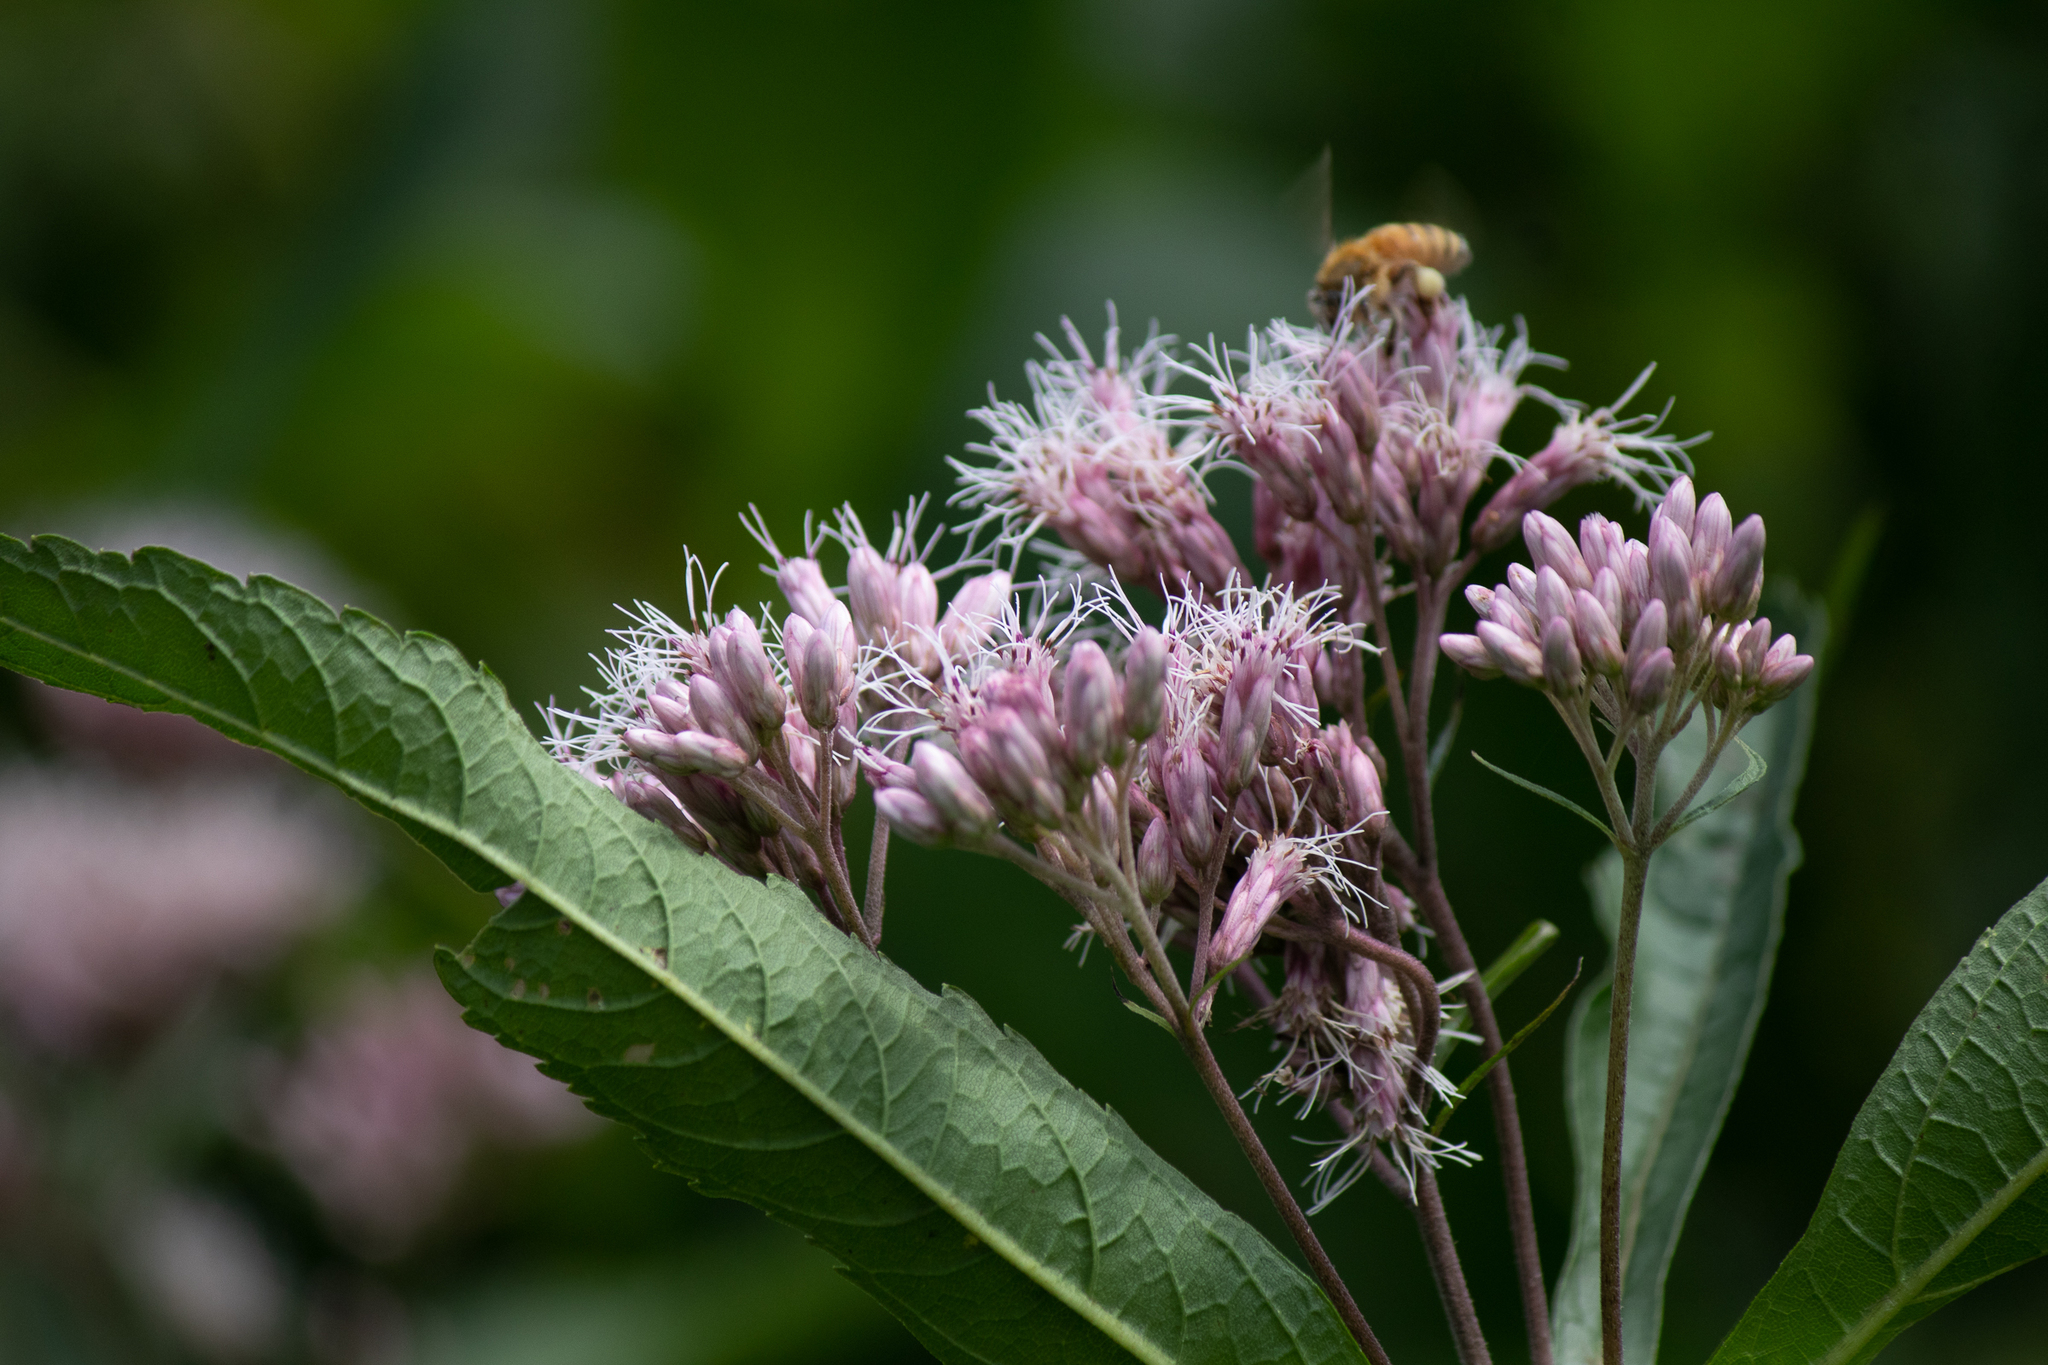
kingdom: Plantae
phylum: Tracheophyta
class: Magnoliopsida
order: Asterales
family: Asteraceae
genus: Eutrochium
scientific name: Eutrochium maculatum
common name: Spotted joe pye weed
